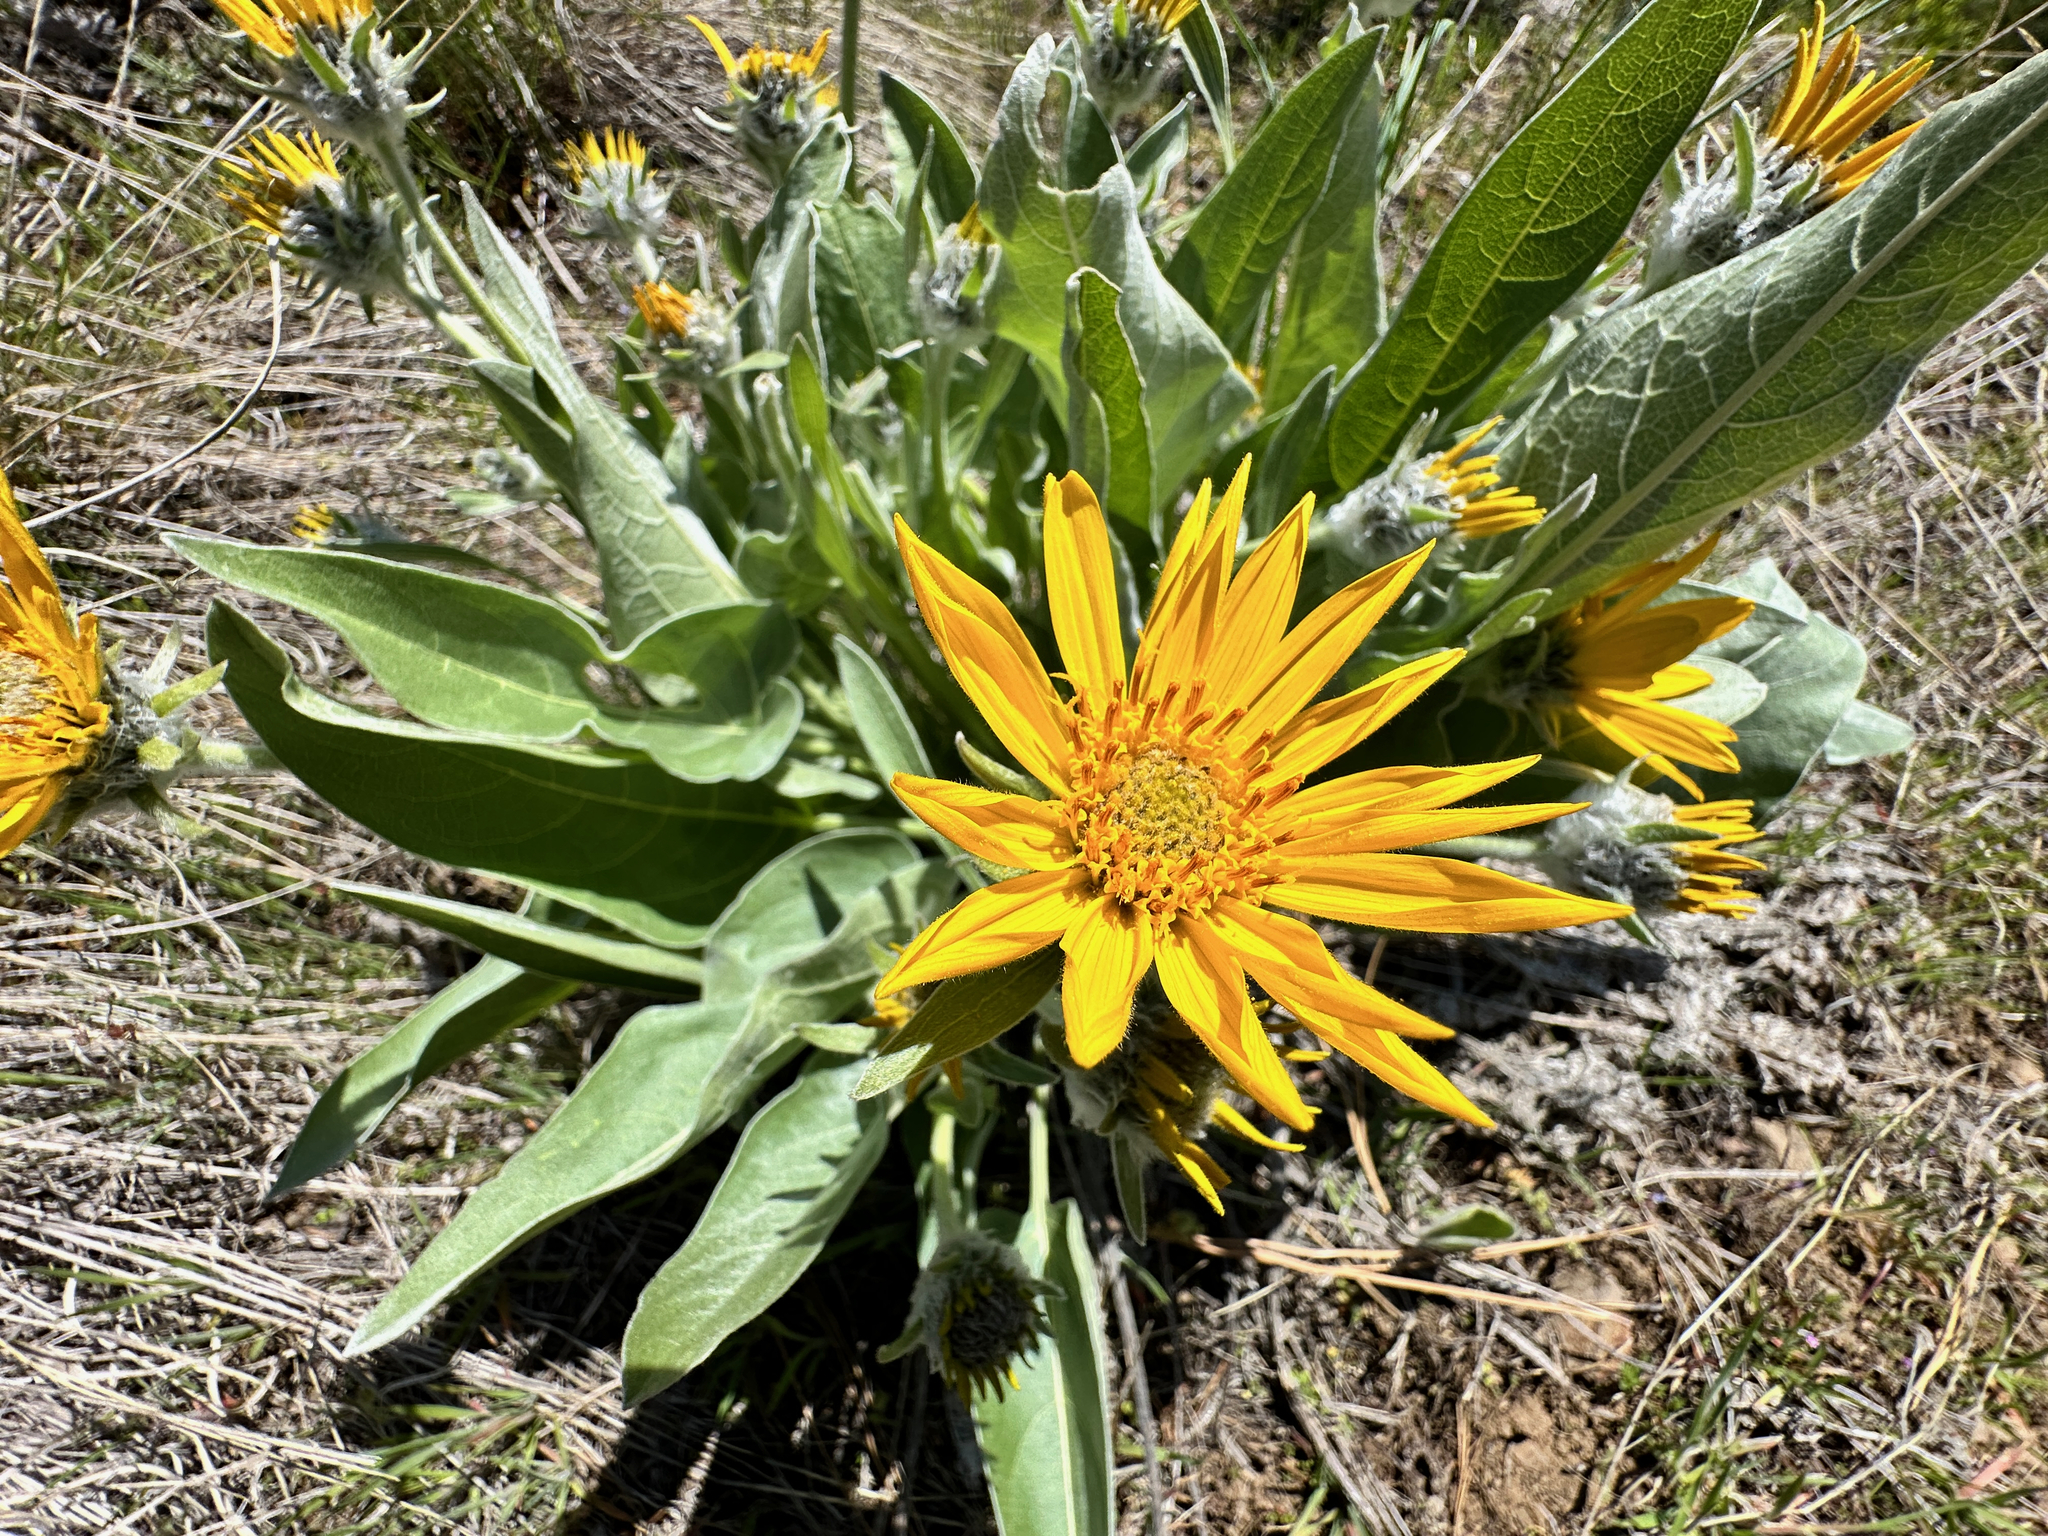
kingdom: Plantae
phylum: Tracheophyta
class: Magnoliopsida
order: Asterales
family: Asteraceae
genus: Wyethia
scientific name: Wyethia sagittata
